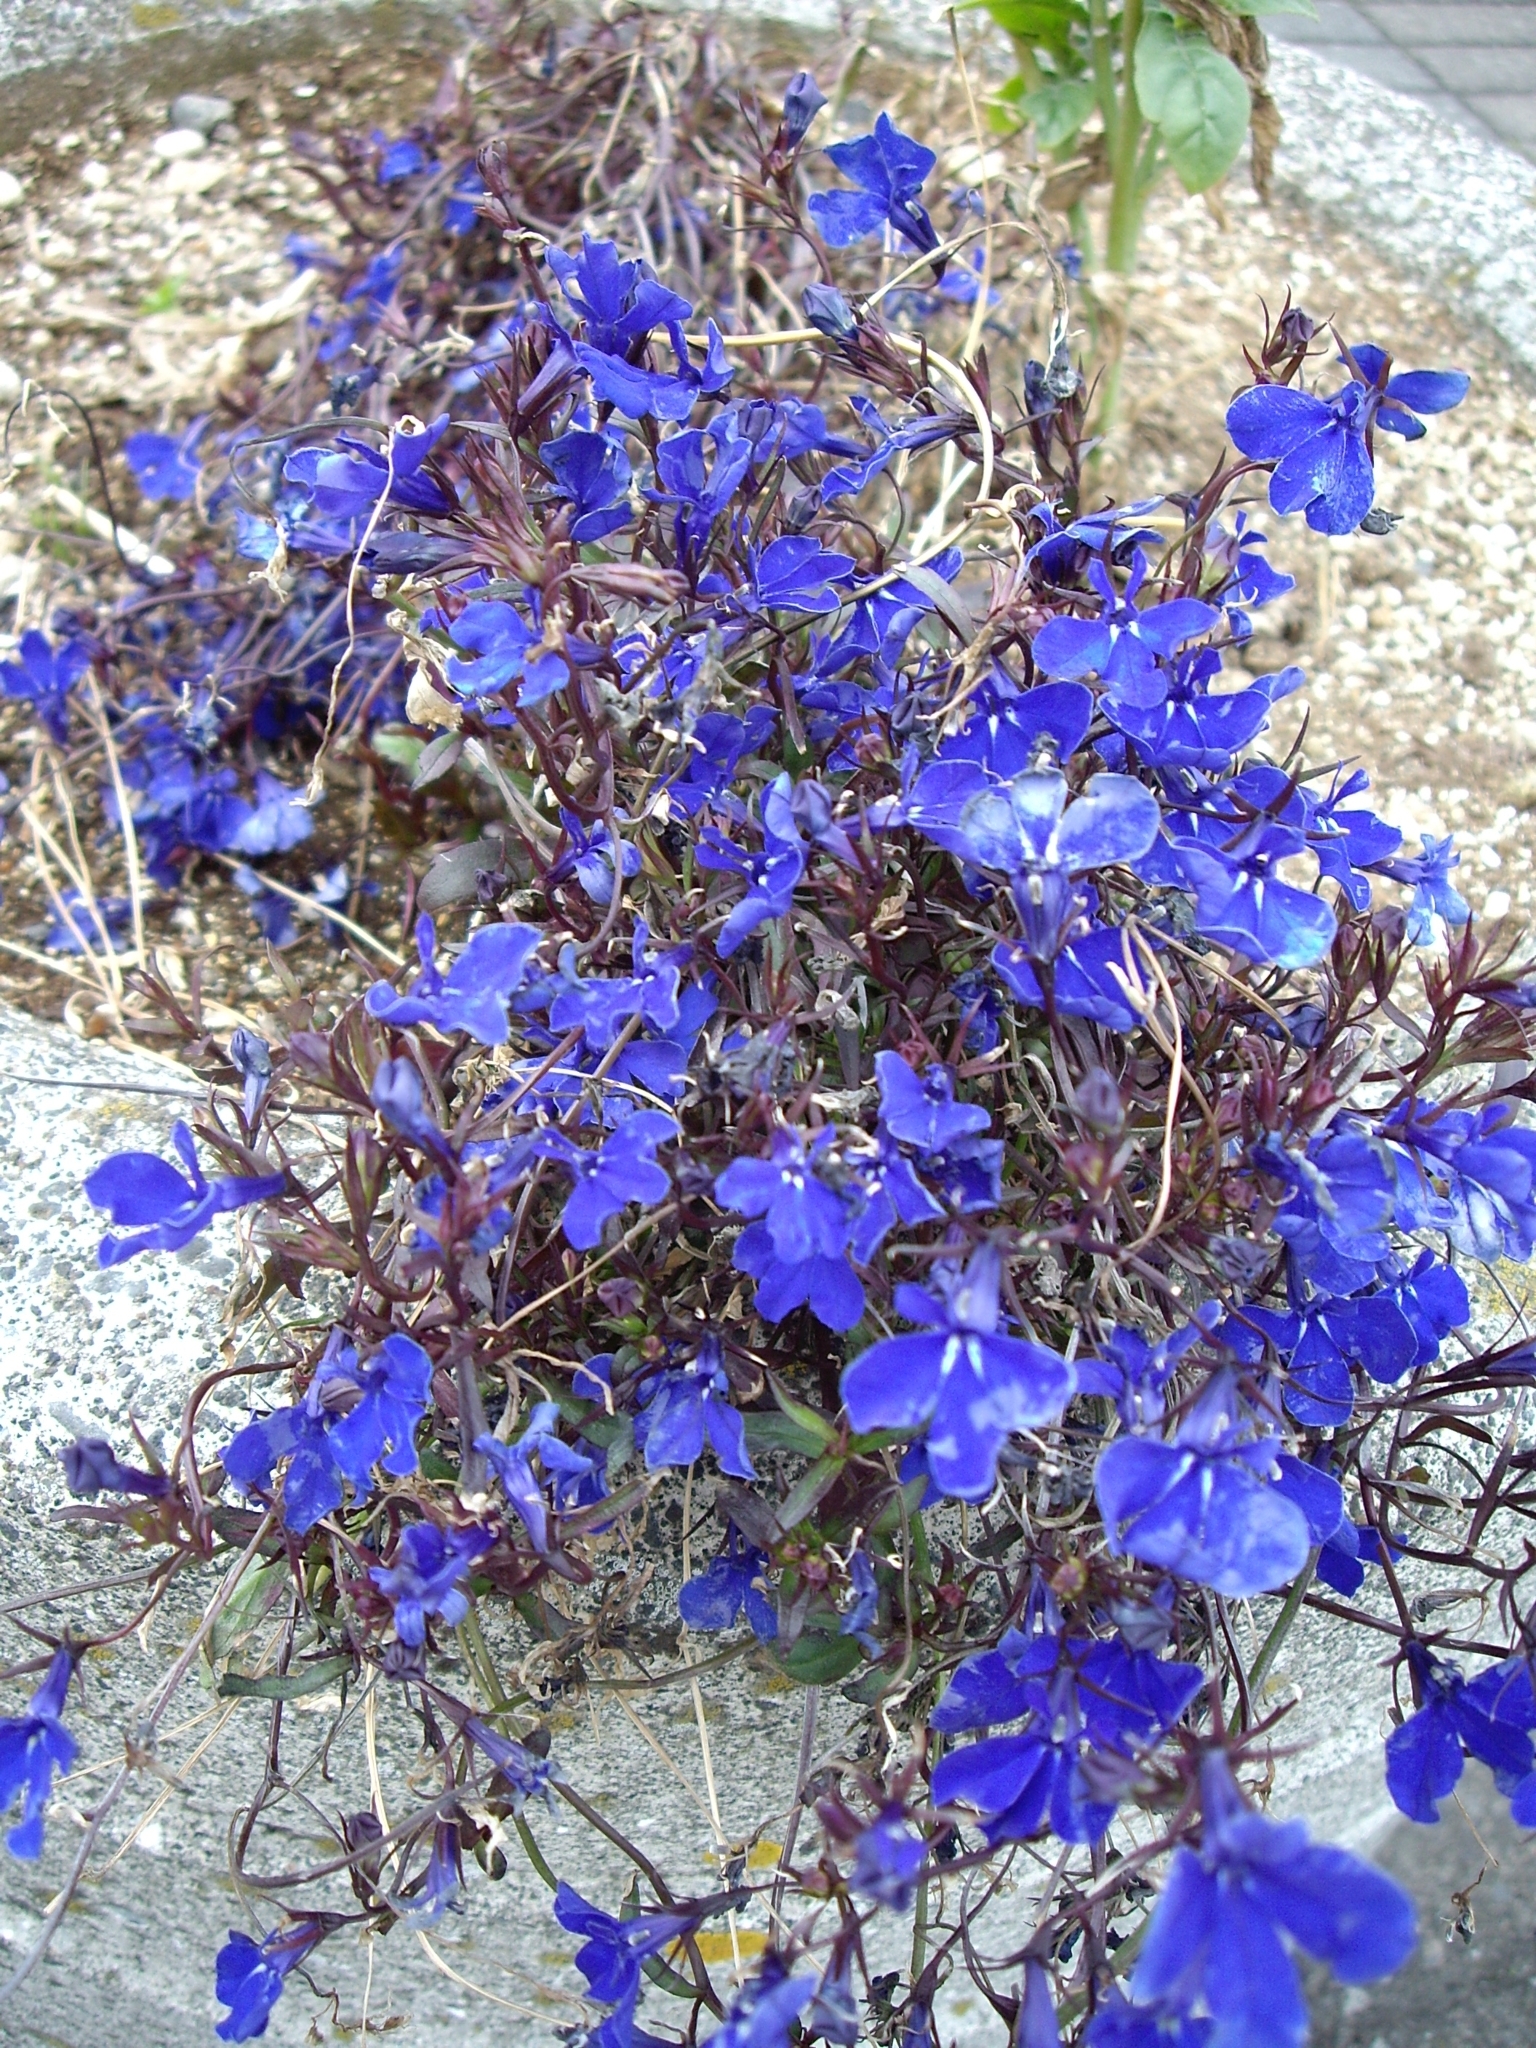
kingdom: Plantae
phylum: Tracheophyta
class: Magnoliopsida
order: Asterales
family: Campanulaceae
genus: Lobelia
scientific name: Lobelia erinus
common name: Edging lobelia
